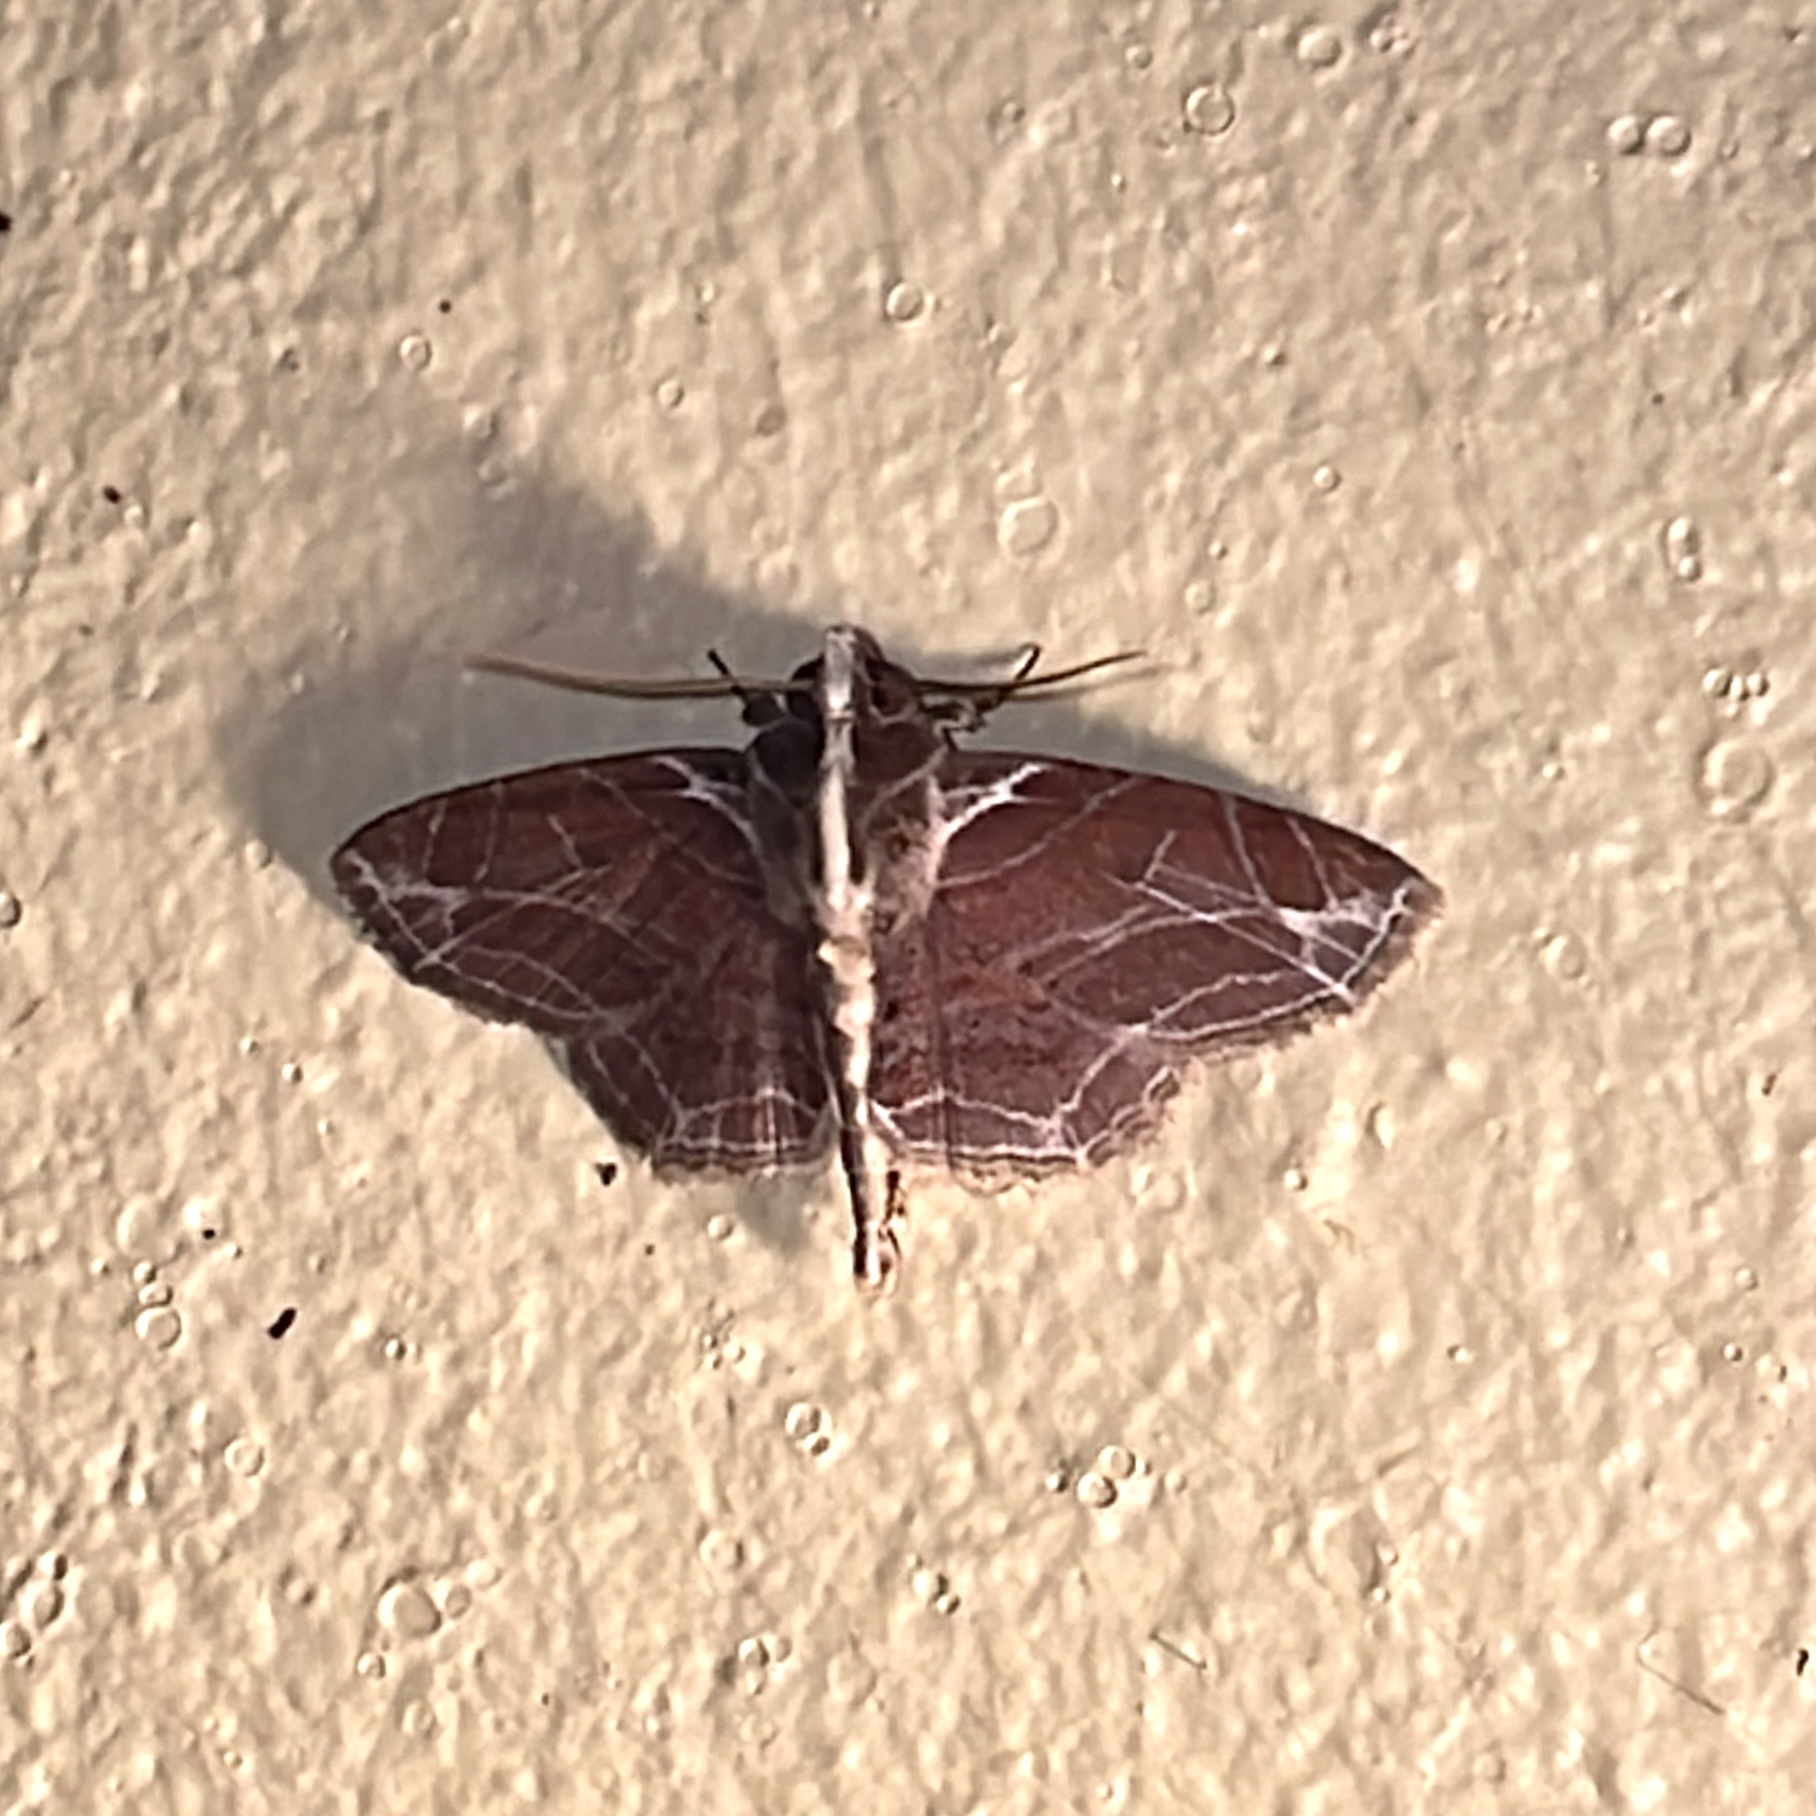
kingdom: Animalia
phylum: Arthropoda
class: Insecta
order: Lepidoptera
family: Erebidae
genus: Dolichosomastis
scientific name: Dolichosomastis dorsilinea
